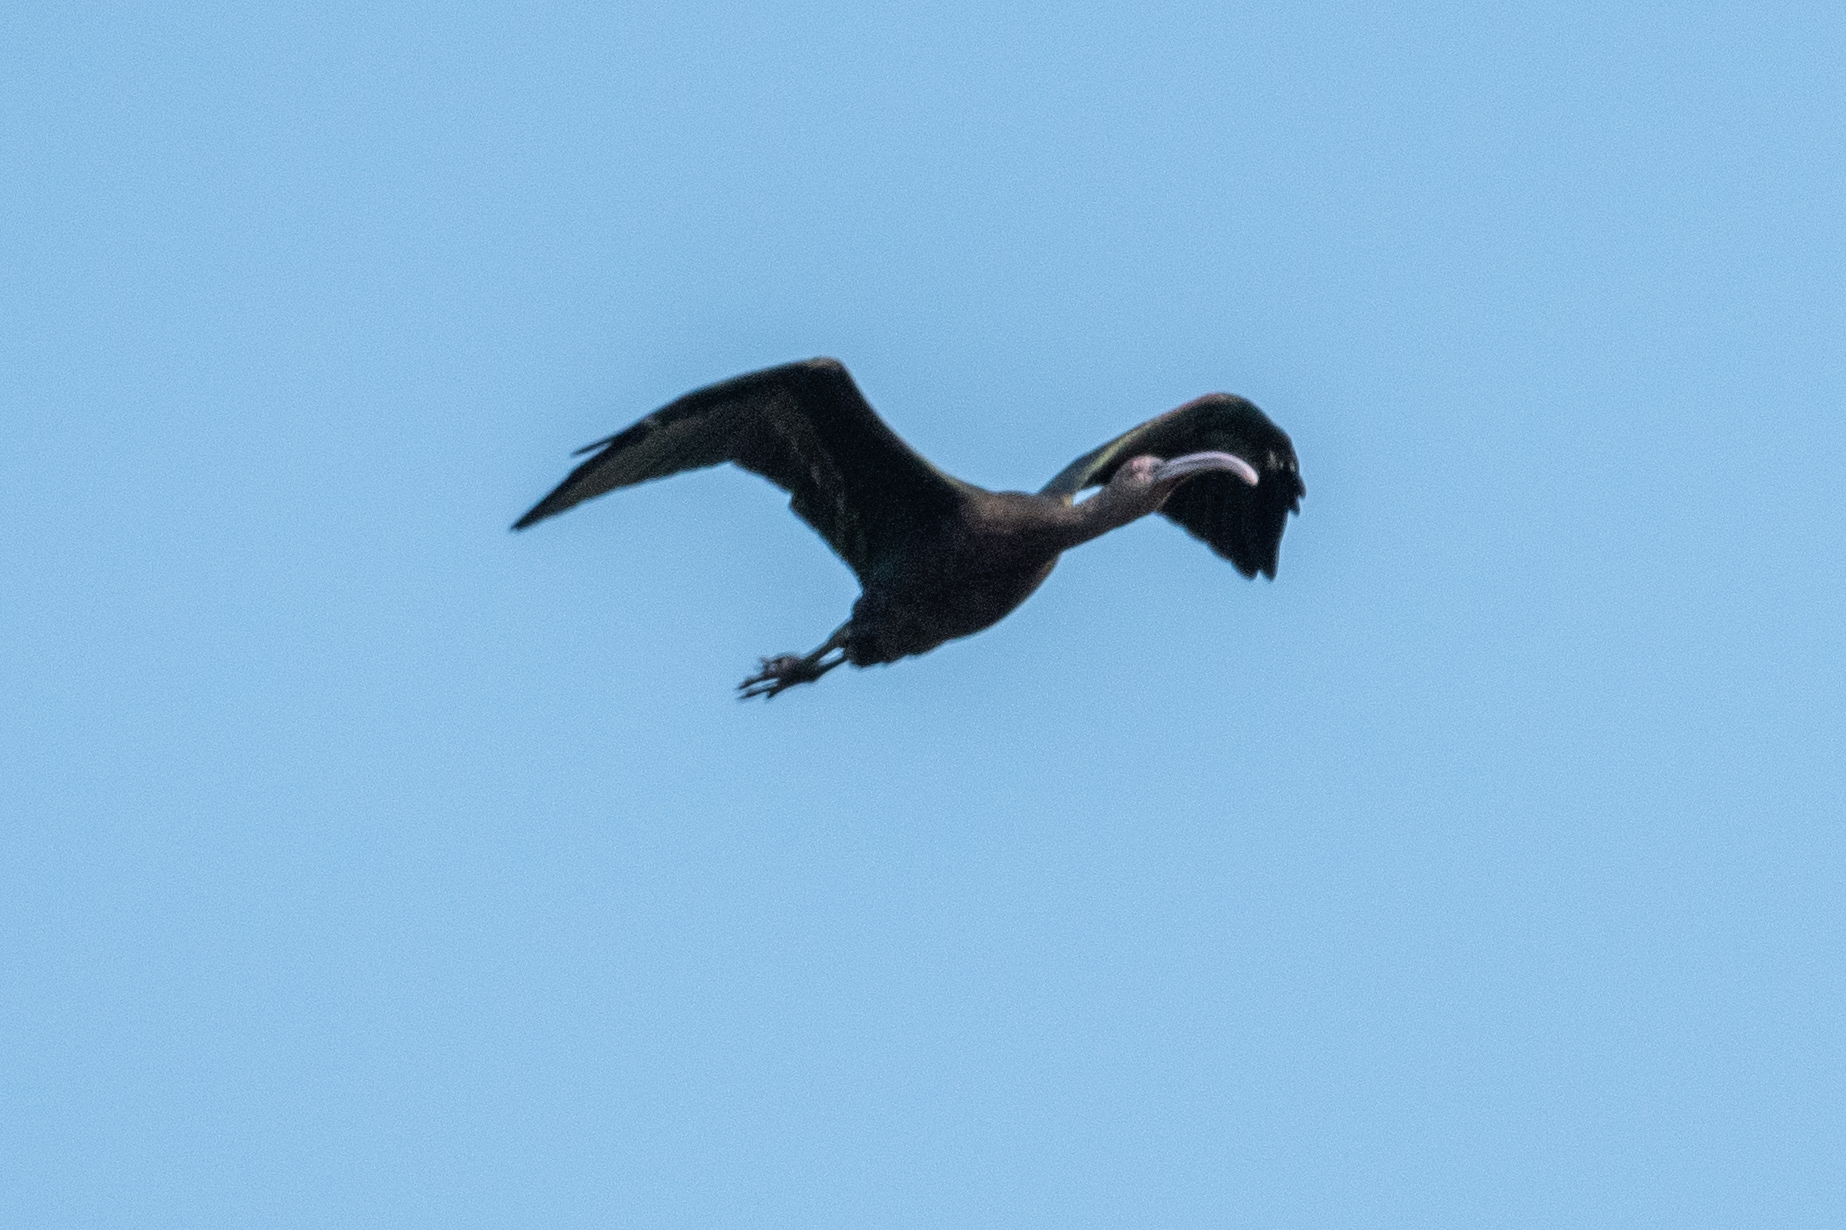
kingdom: Animalia
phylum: Chordata
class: Aves
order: Pelecaniformes
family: Threskiornithidae
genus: Plegadis
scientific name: Plegadis chihi
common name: White-faced ibis
